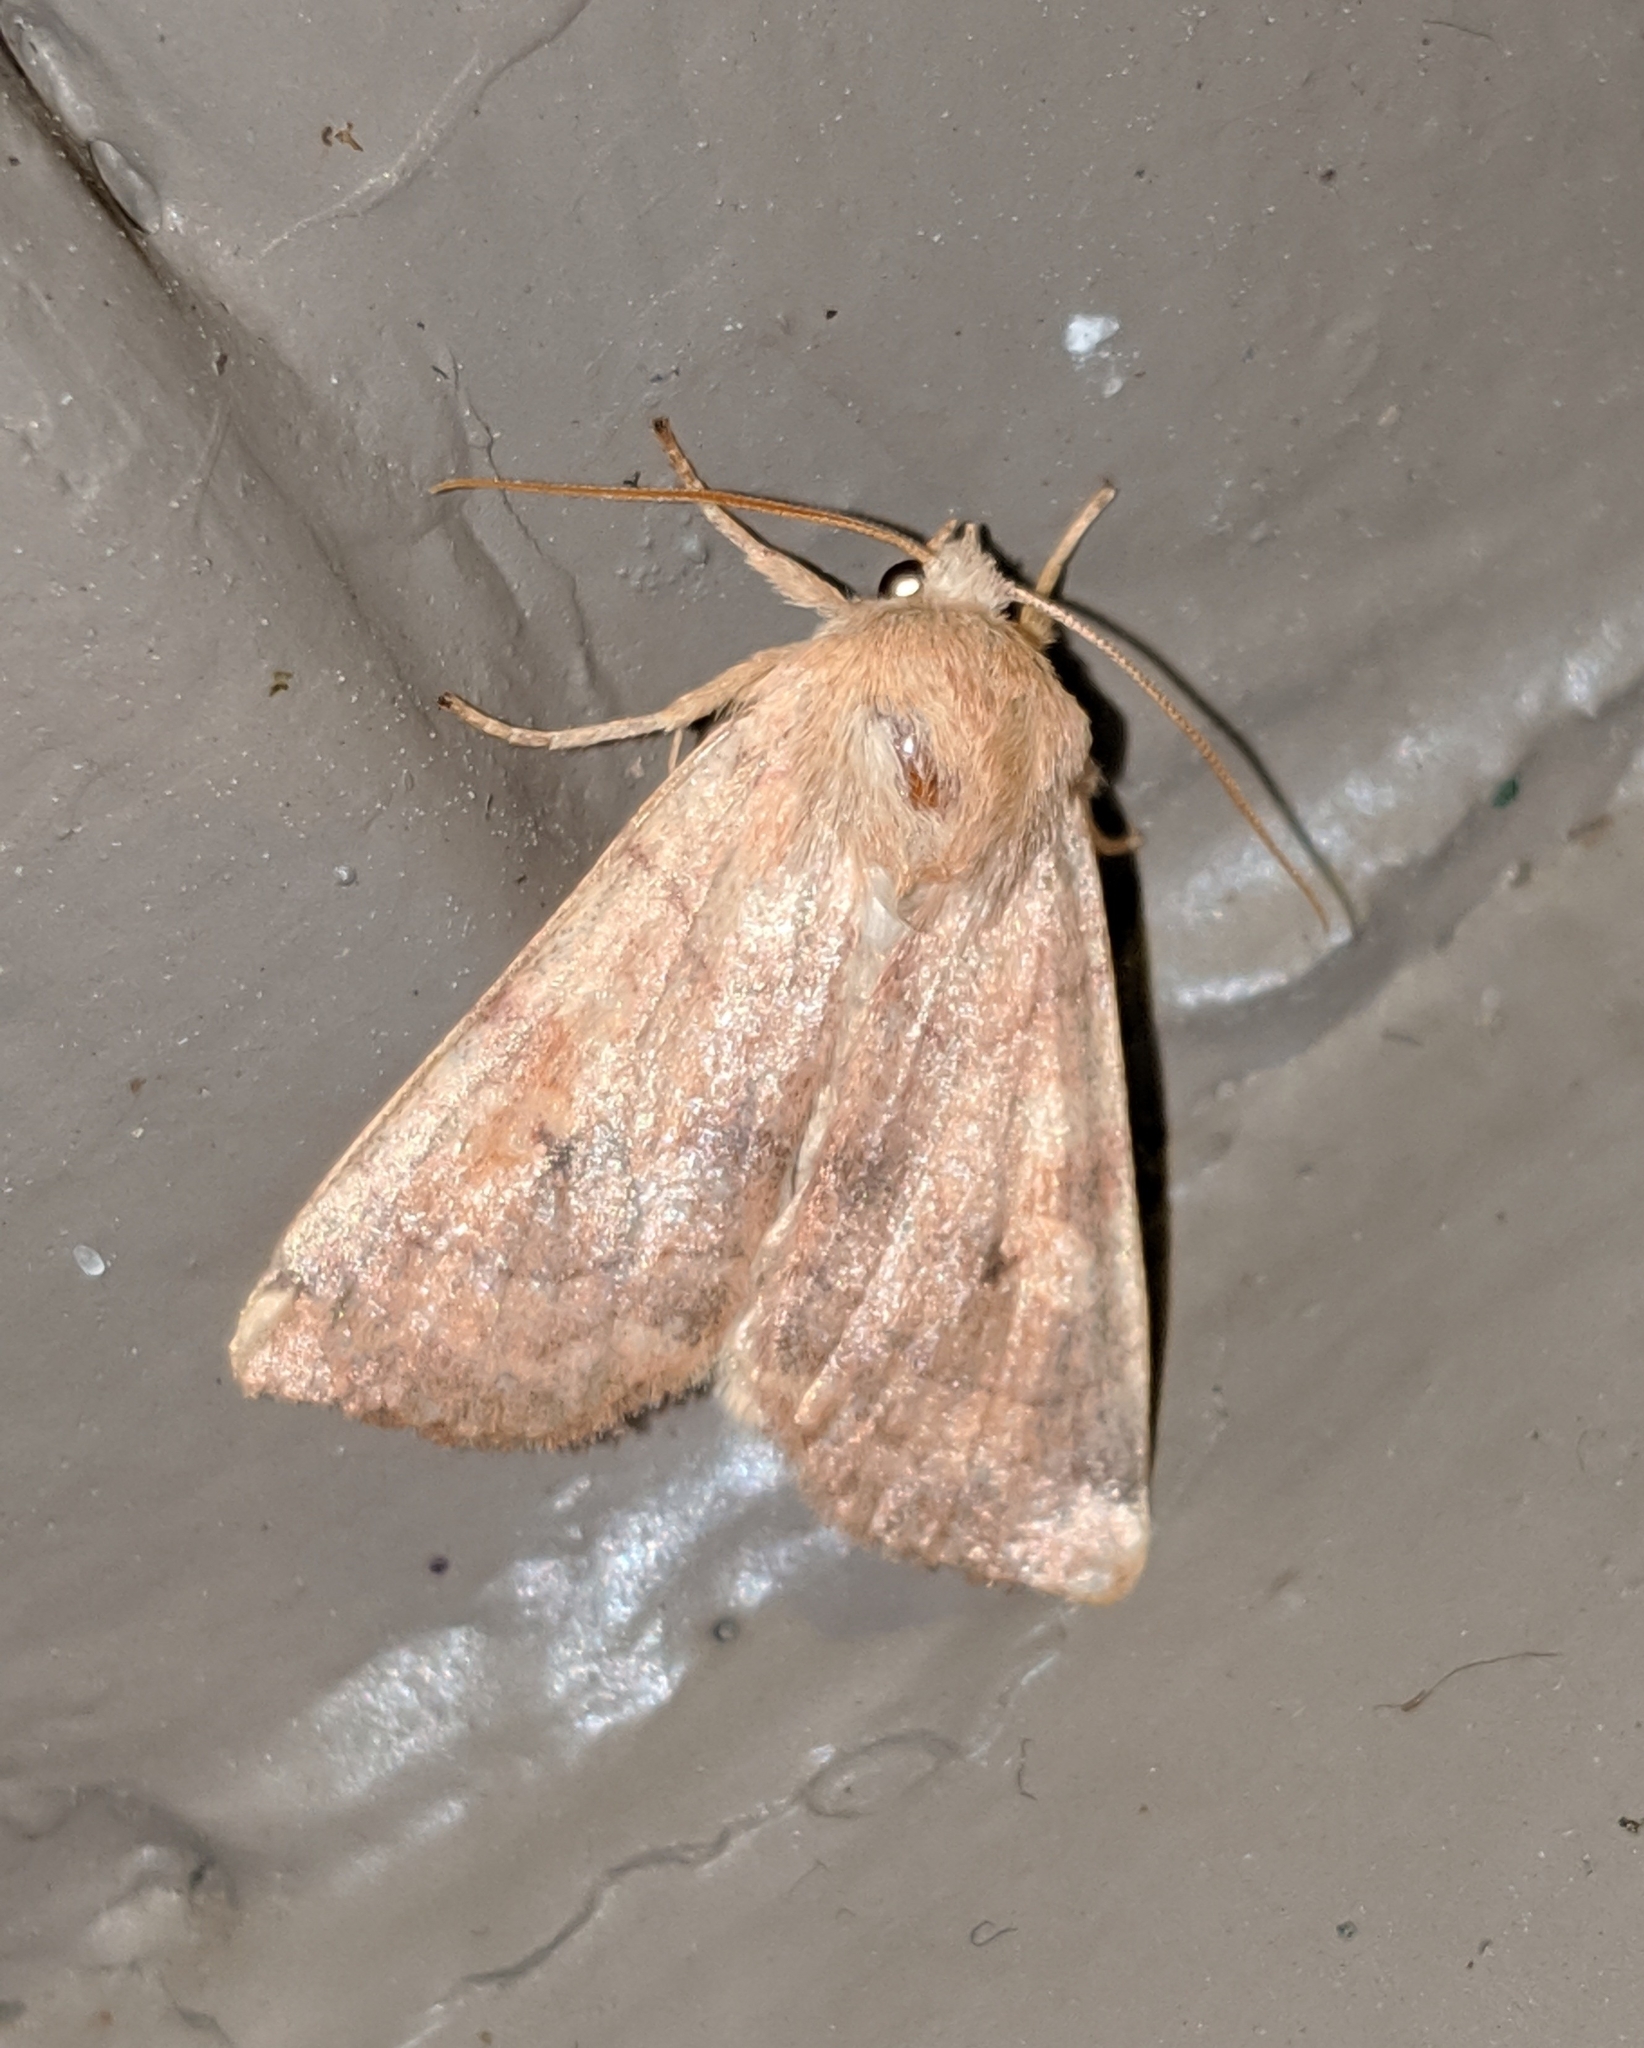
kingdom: Animalia
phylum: Arthropoda
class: Insecta
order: Lepidoptera
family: Noctuidae
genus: Enargia
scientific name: Enargia decolor
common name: Aspen twoleaf tier moth
